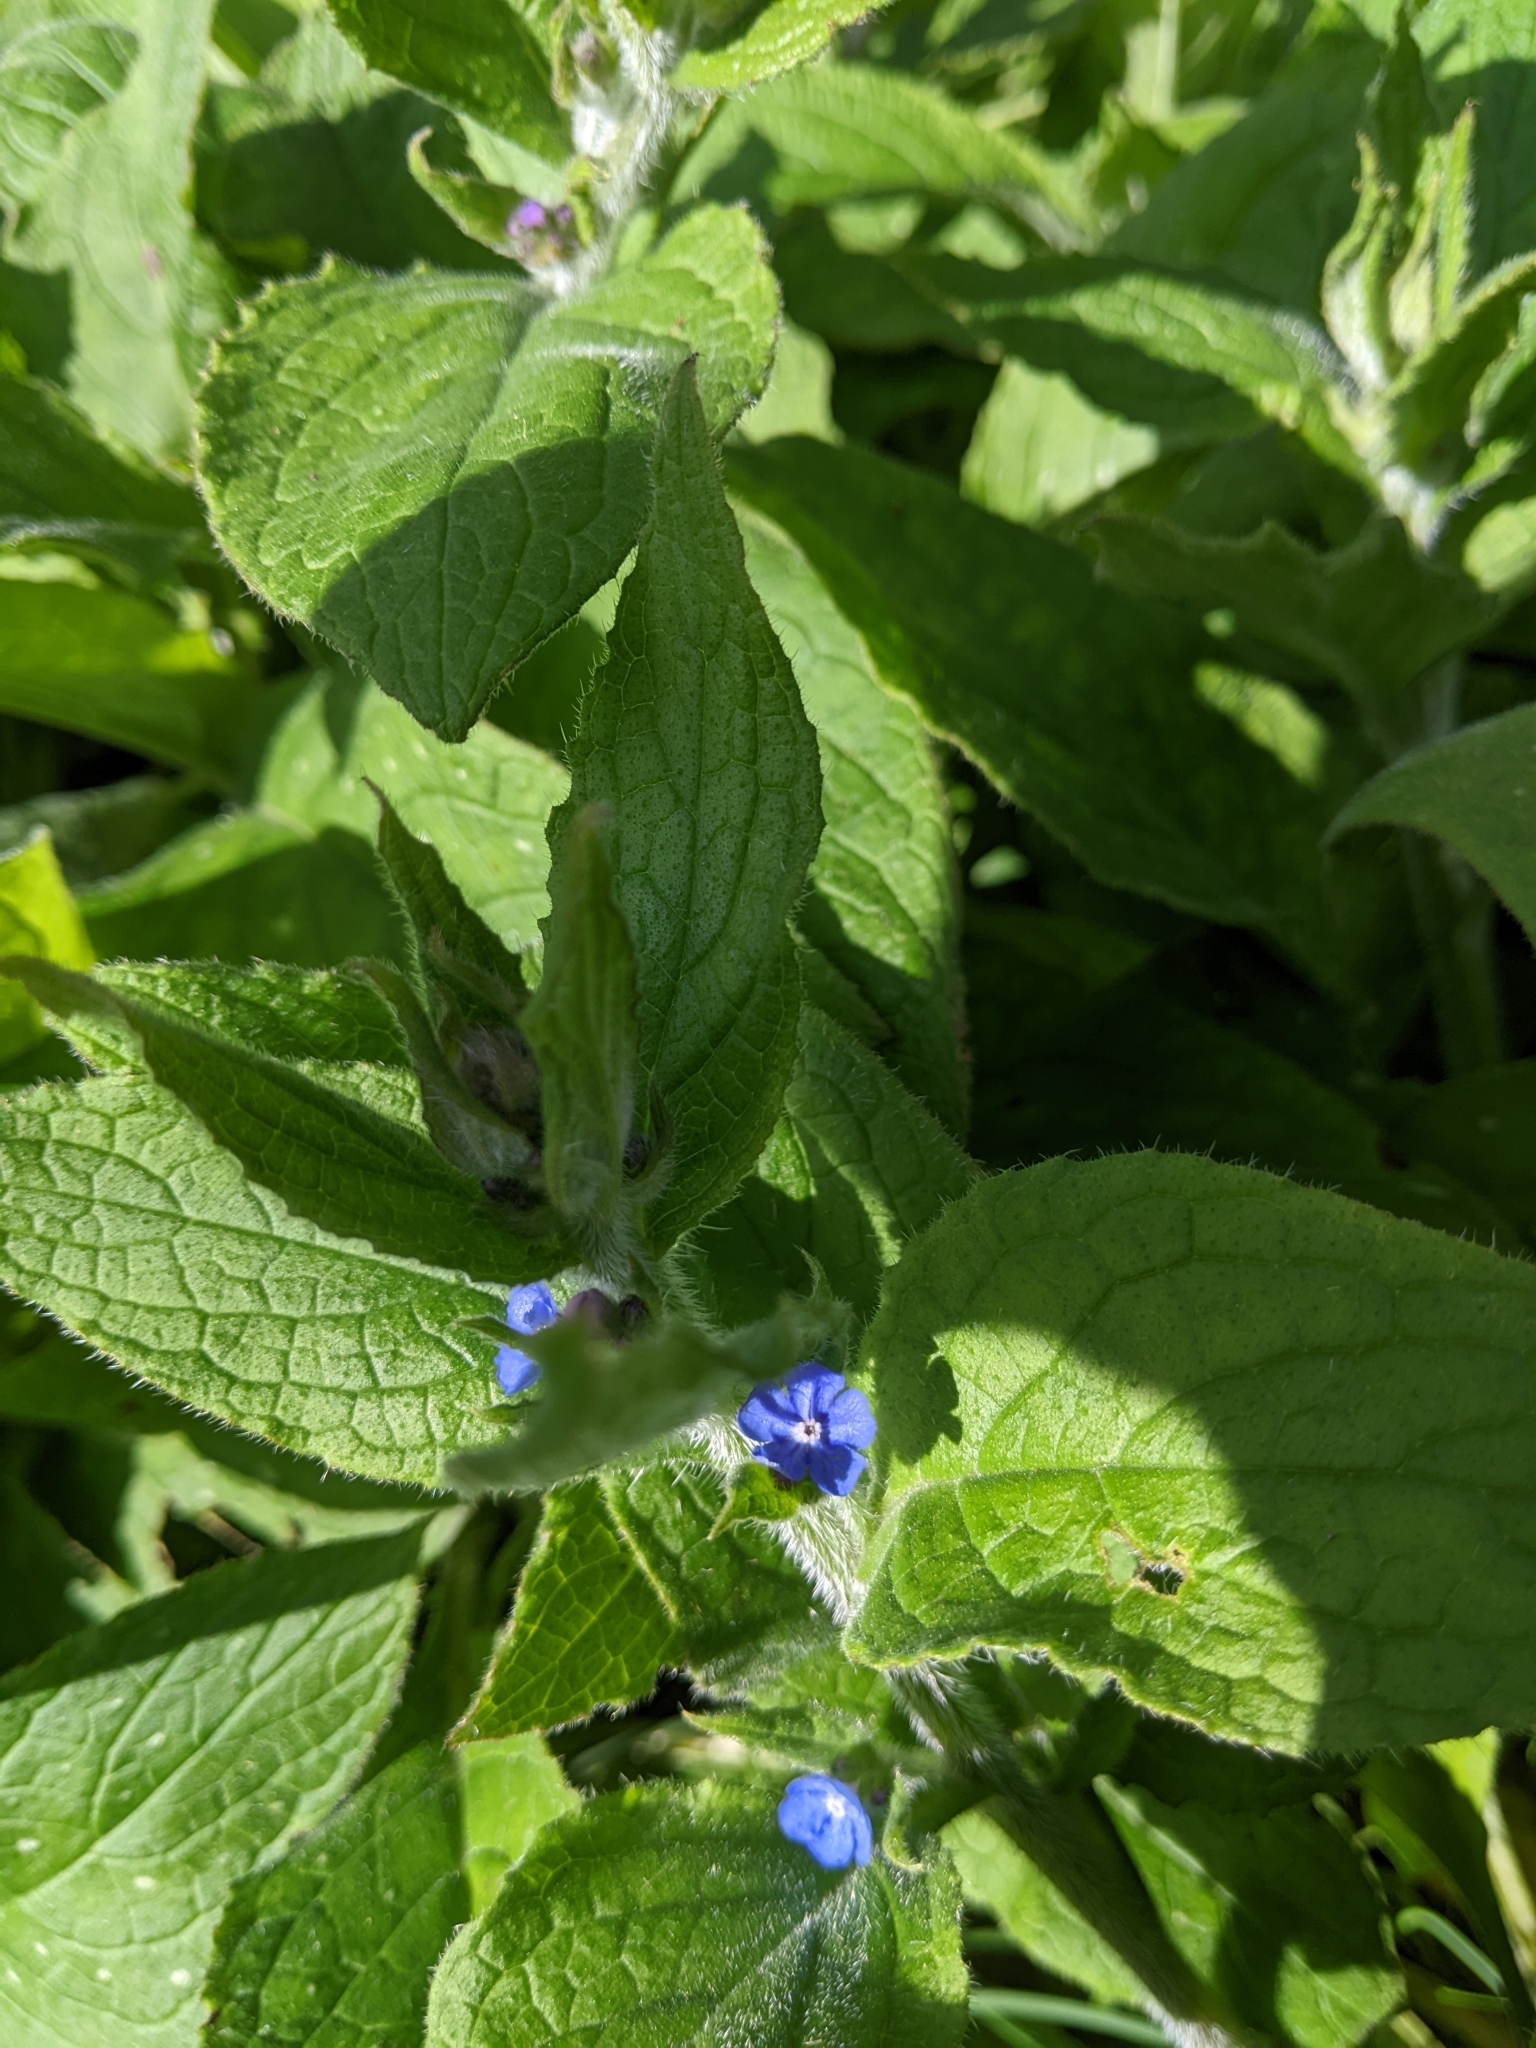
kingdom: Plantae
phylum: Tracheophyta
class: Magnoliopsida
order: Boraginales
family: Boraginaceae
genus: Pentaglottis
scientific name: Pentaglottis sempervirens
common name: Green alkanet
